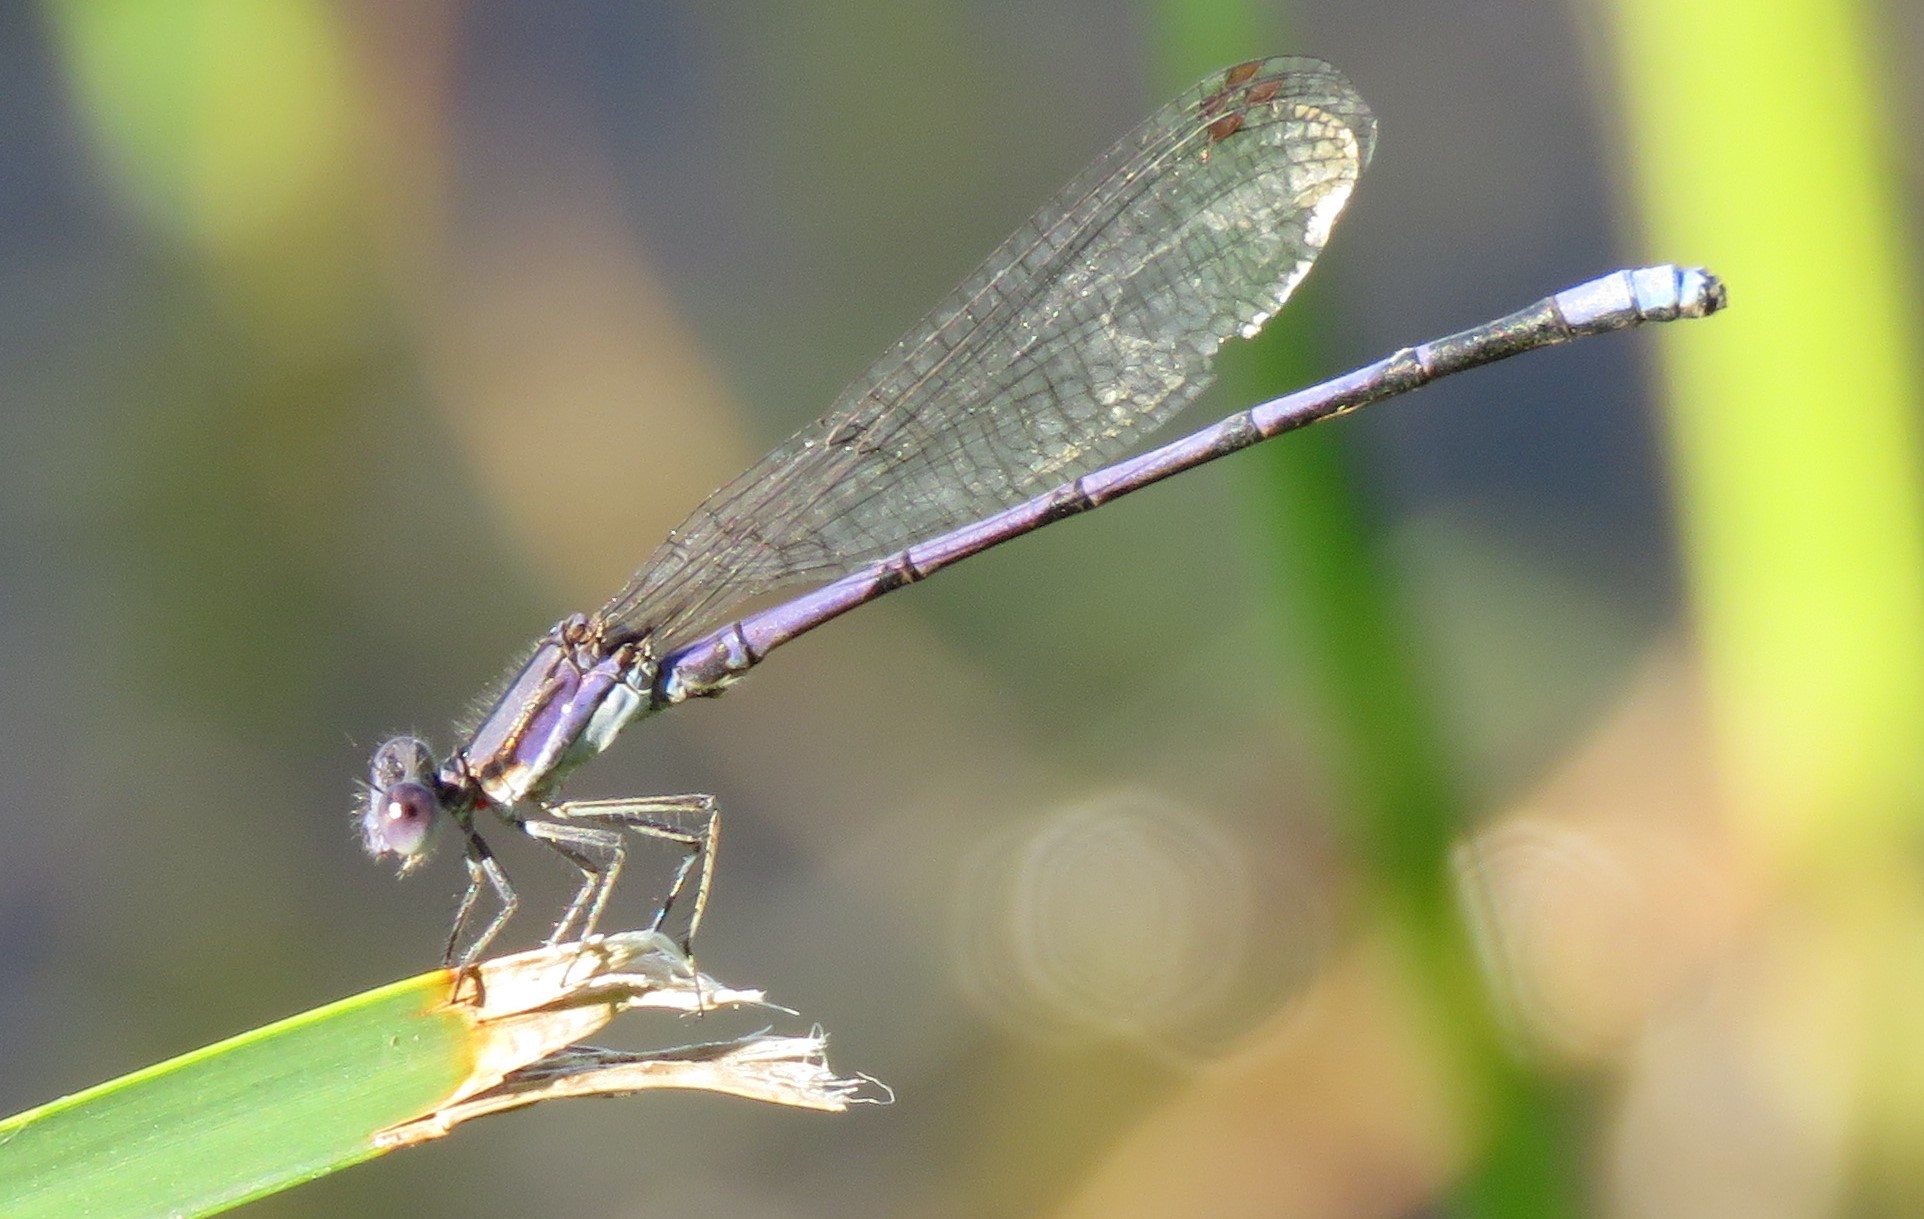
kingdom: Animalia
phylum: Arthropoda
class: Insecta
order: Odonata
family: Coenagrionidae
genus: Argia
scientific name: Argia fumipennis
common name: Variable dancer
